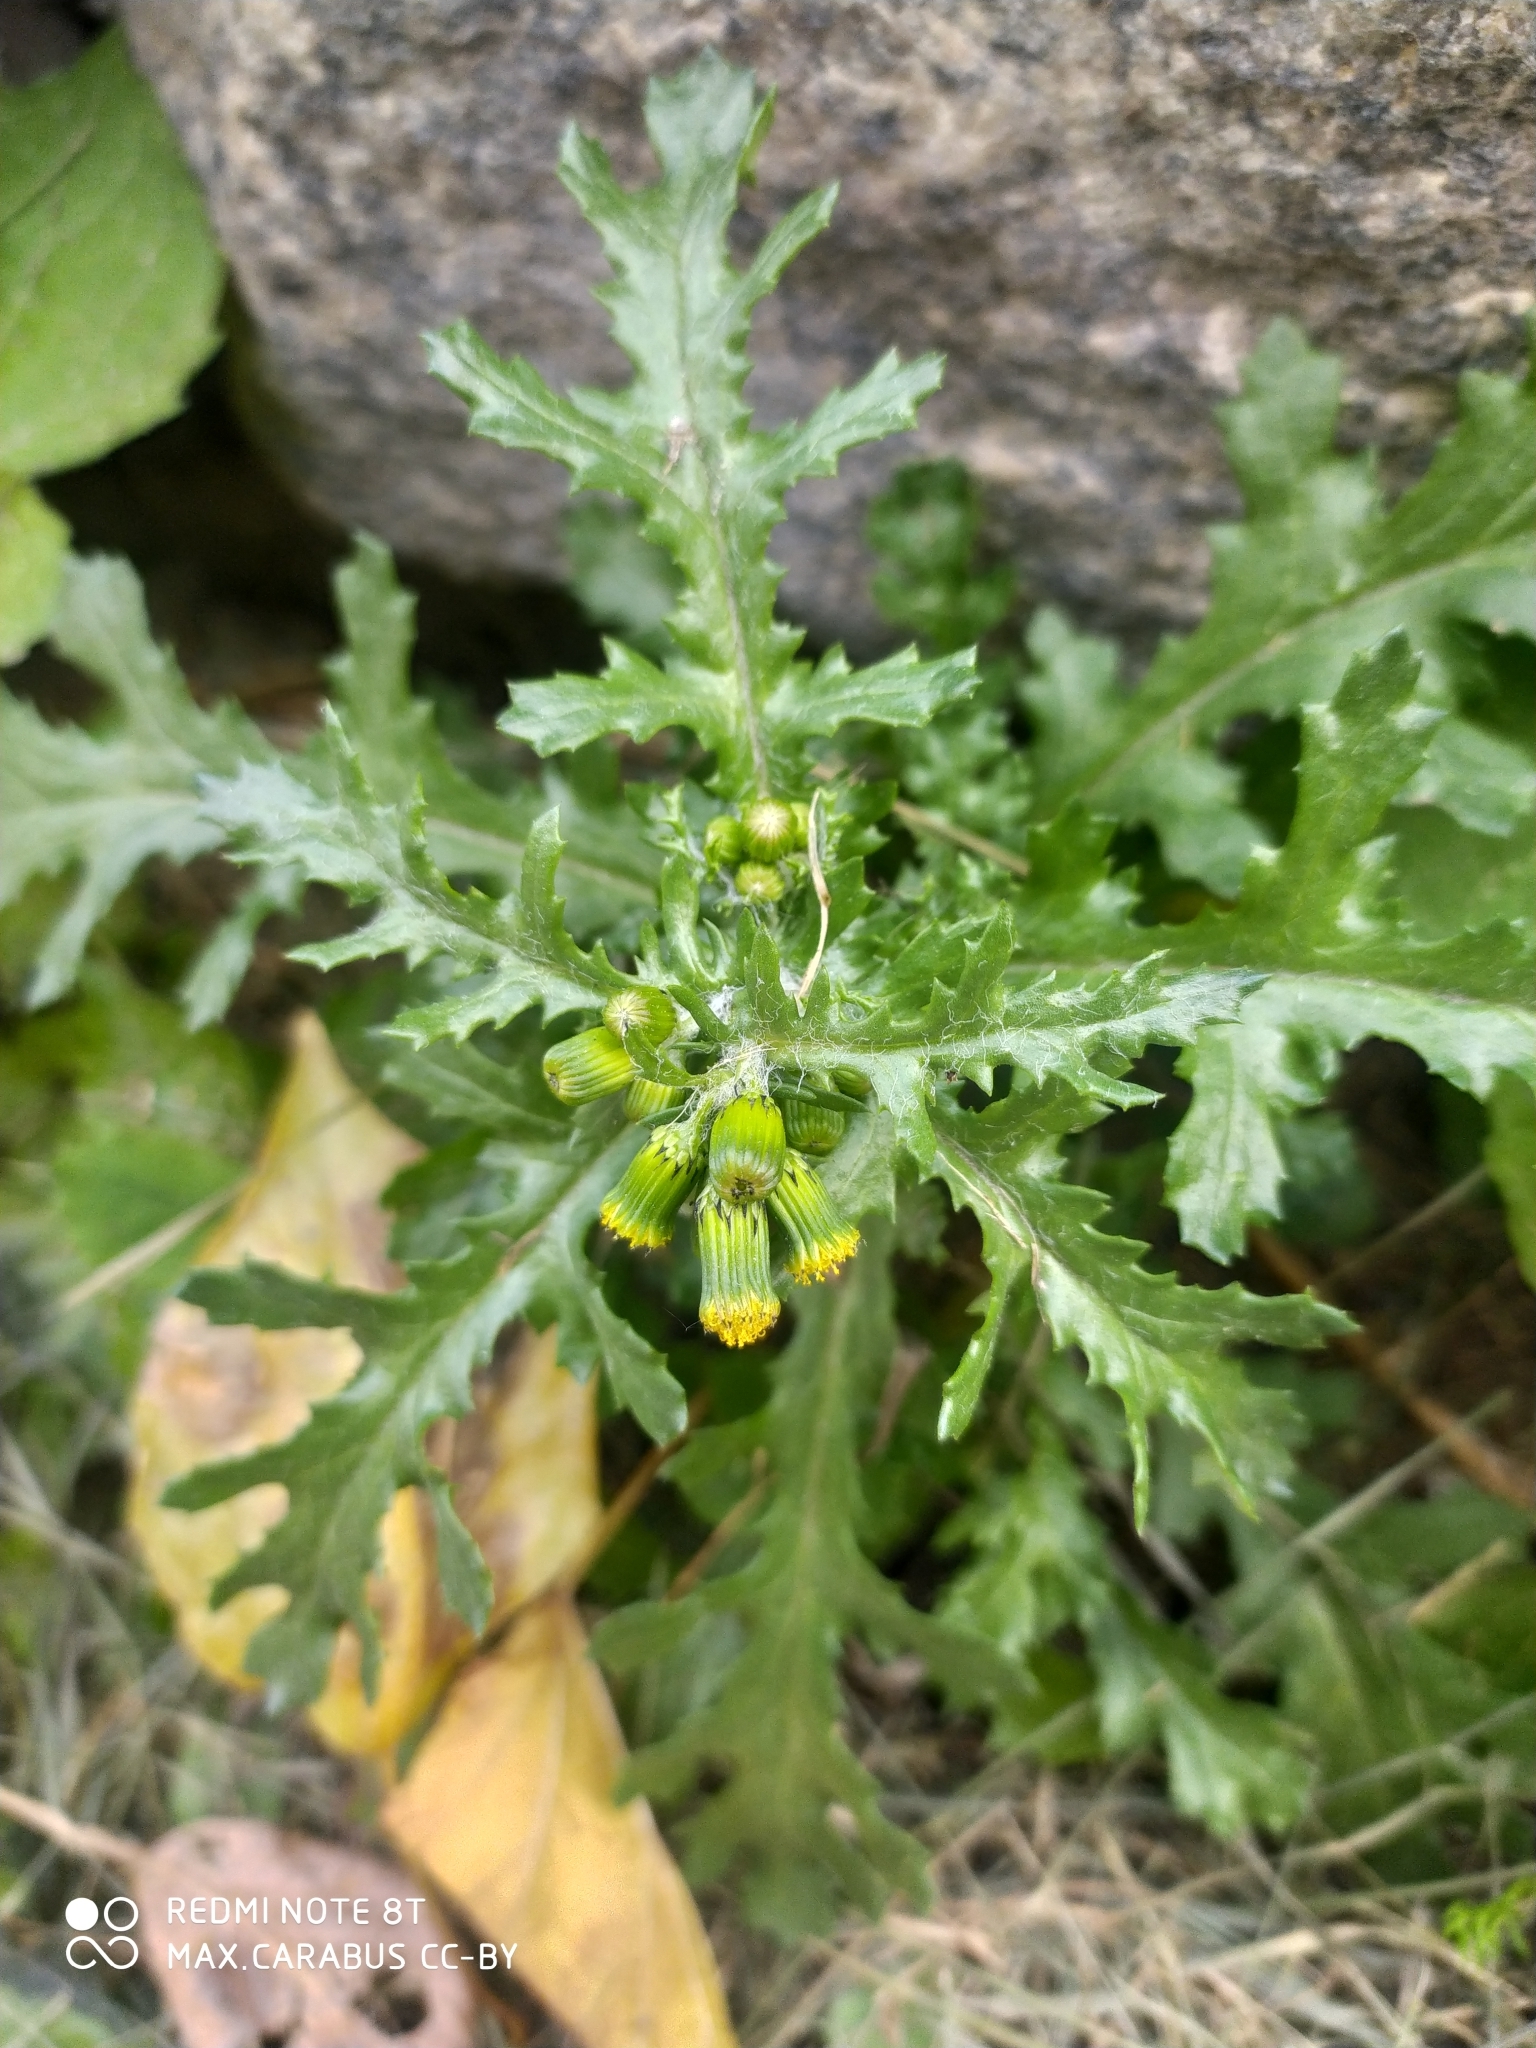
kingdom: Plantae
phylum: Tracheophyta
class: Magnoliopsida
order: Asterales
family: Asteraceae
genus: Senecio
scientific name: Senecio vulgaris
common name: Old-man-in-the-spring
